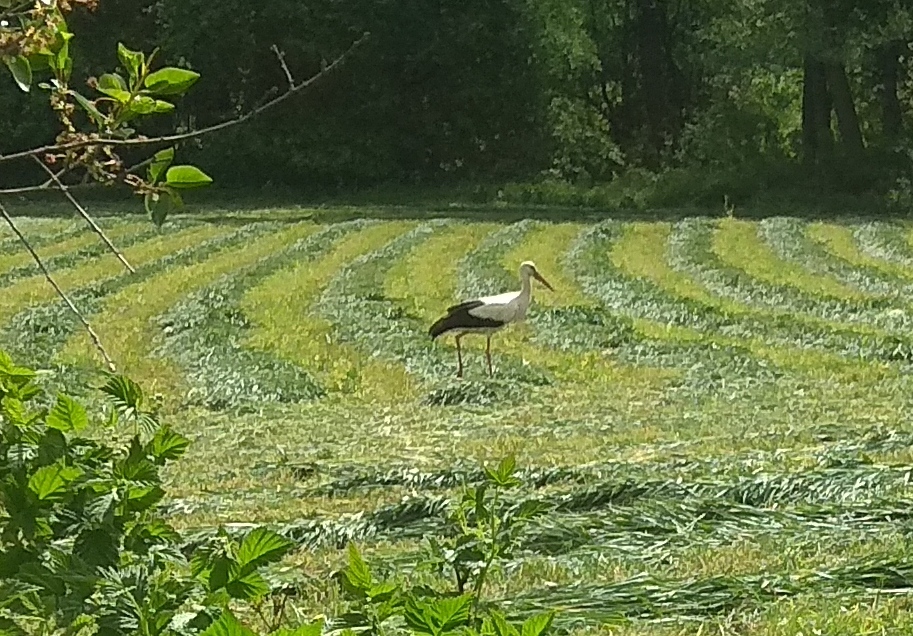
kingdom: Animalia
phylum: Chordata
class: Aves
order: Ciconiiformes
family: Ciconiidae
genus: Ciconia
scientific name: Ciconia ciconia
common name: White stork
